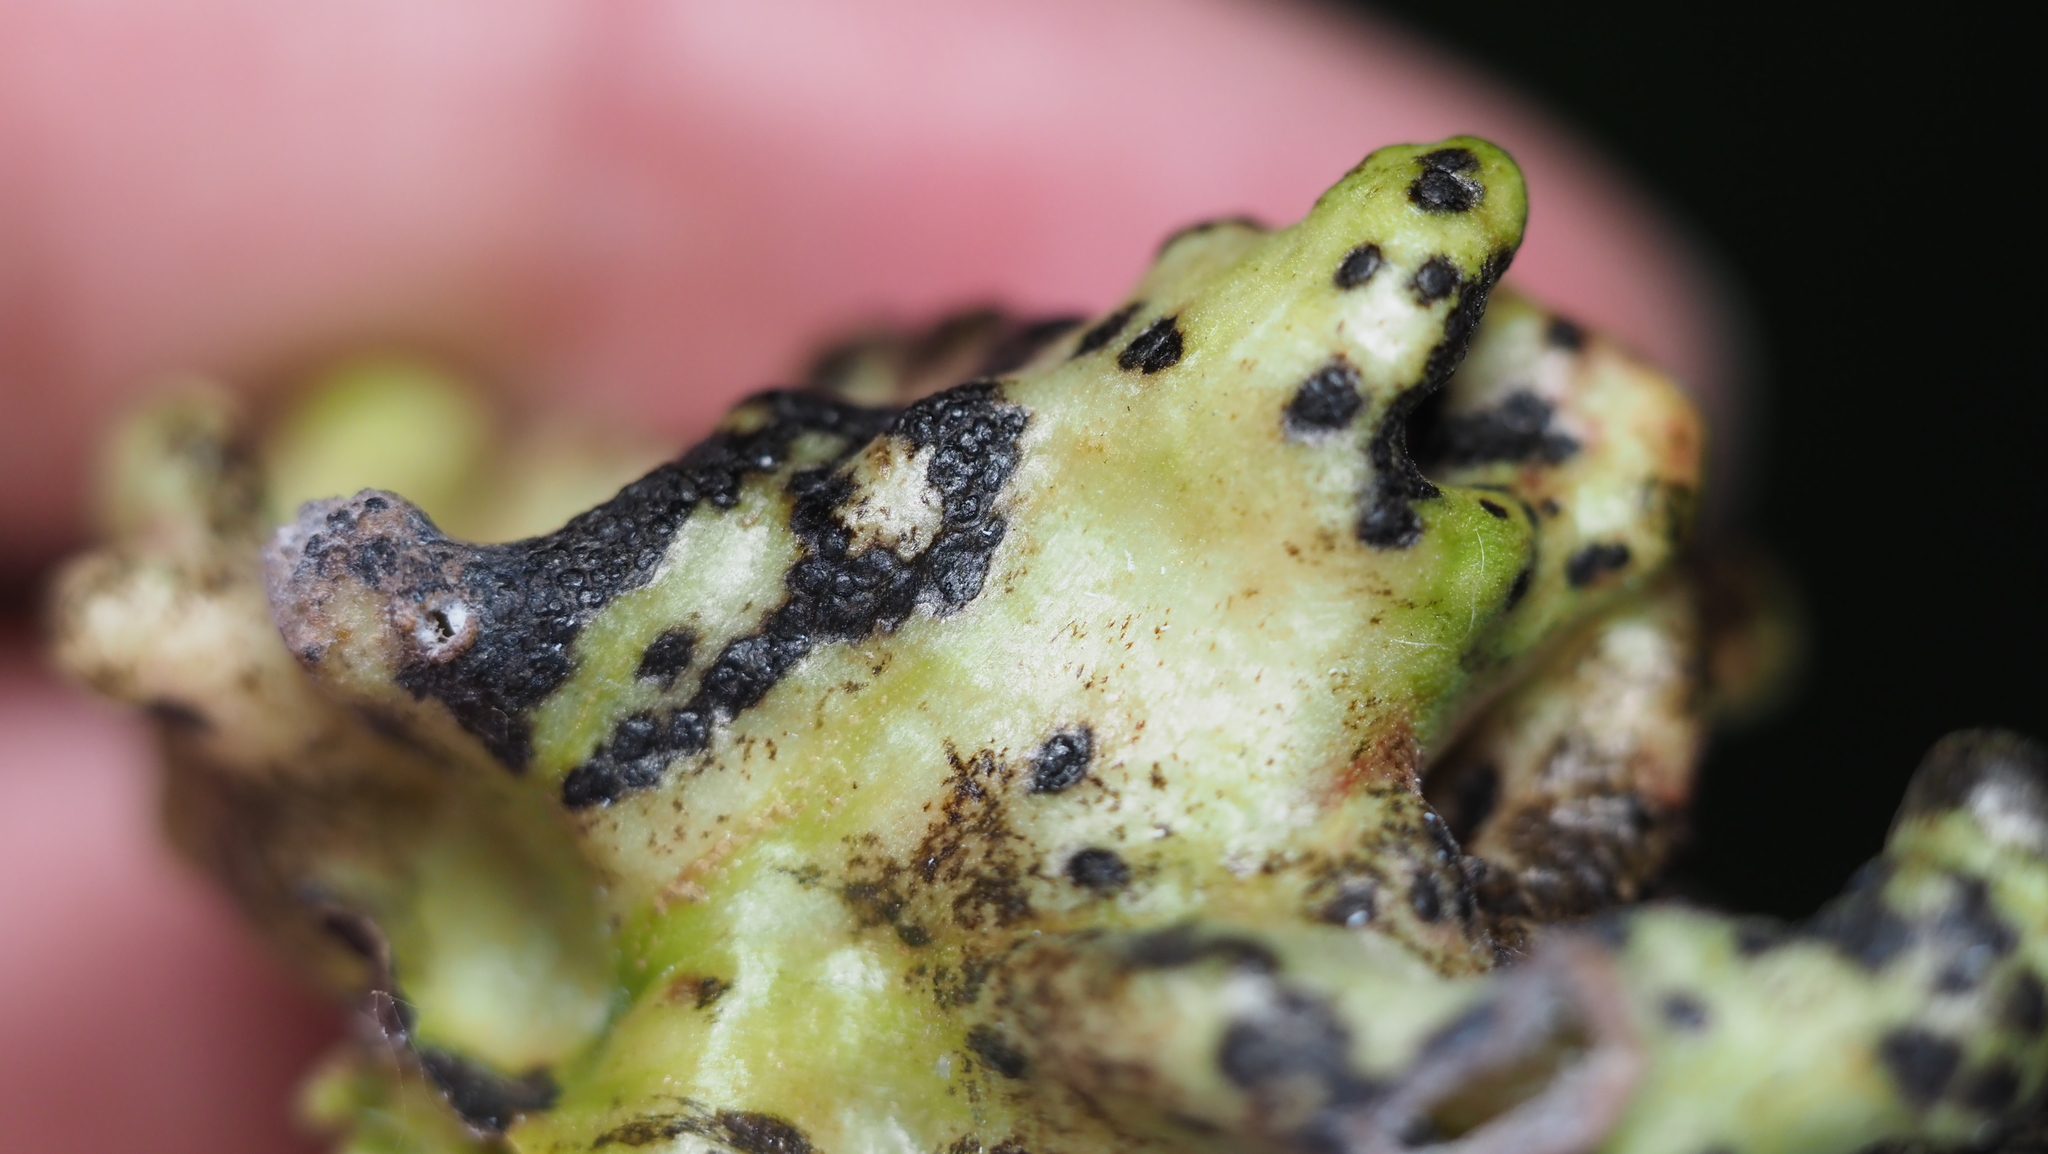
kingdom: Animalia
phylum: Arthropoda
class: Insecta
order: Hemiptera
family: Aphididae
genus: Mordwilkoja
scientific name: Mordwilkoja vagabunda
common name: Poplar vagabond aphid
